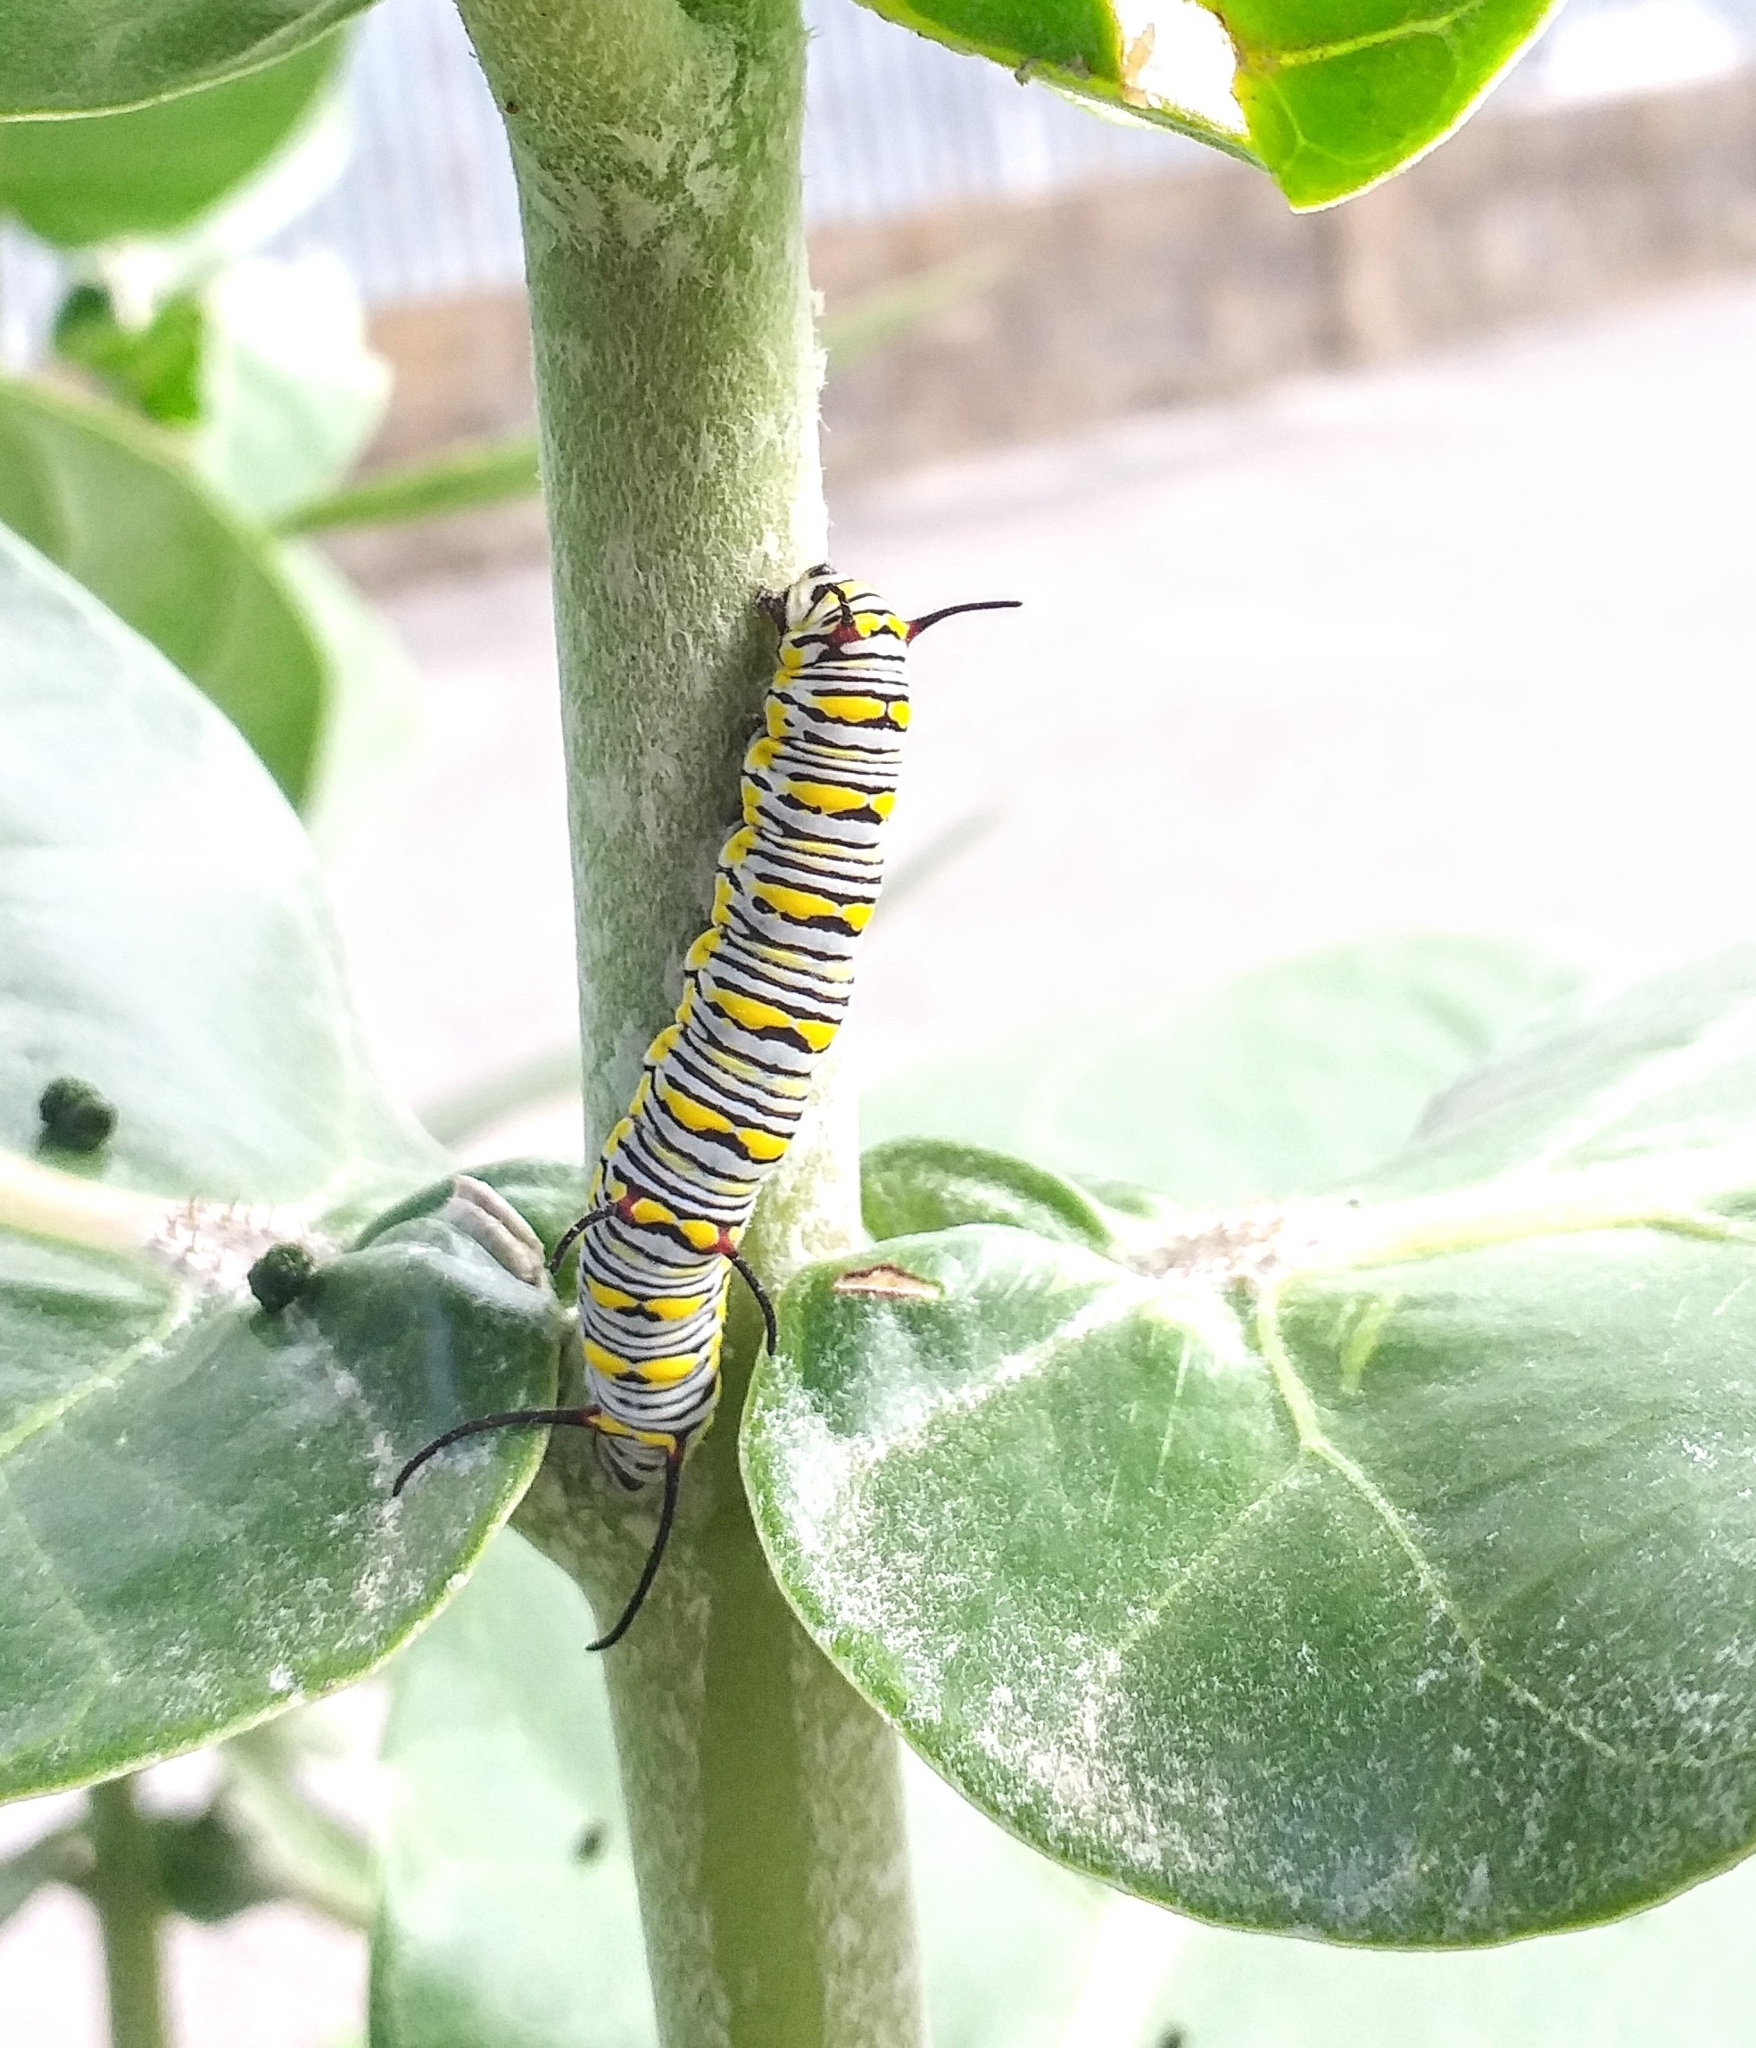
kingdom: Animalia
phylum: Arthropoda
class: Insecta
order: Lepidoptera
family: Nymphalidae
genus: Danaus
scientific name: Danaus chrysippus
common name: Plain tiger
